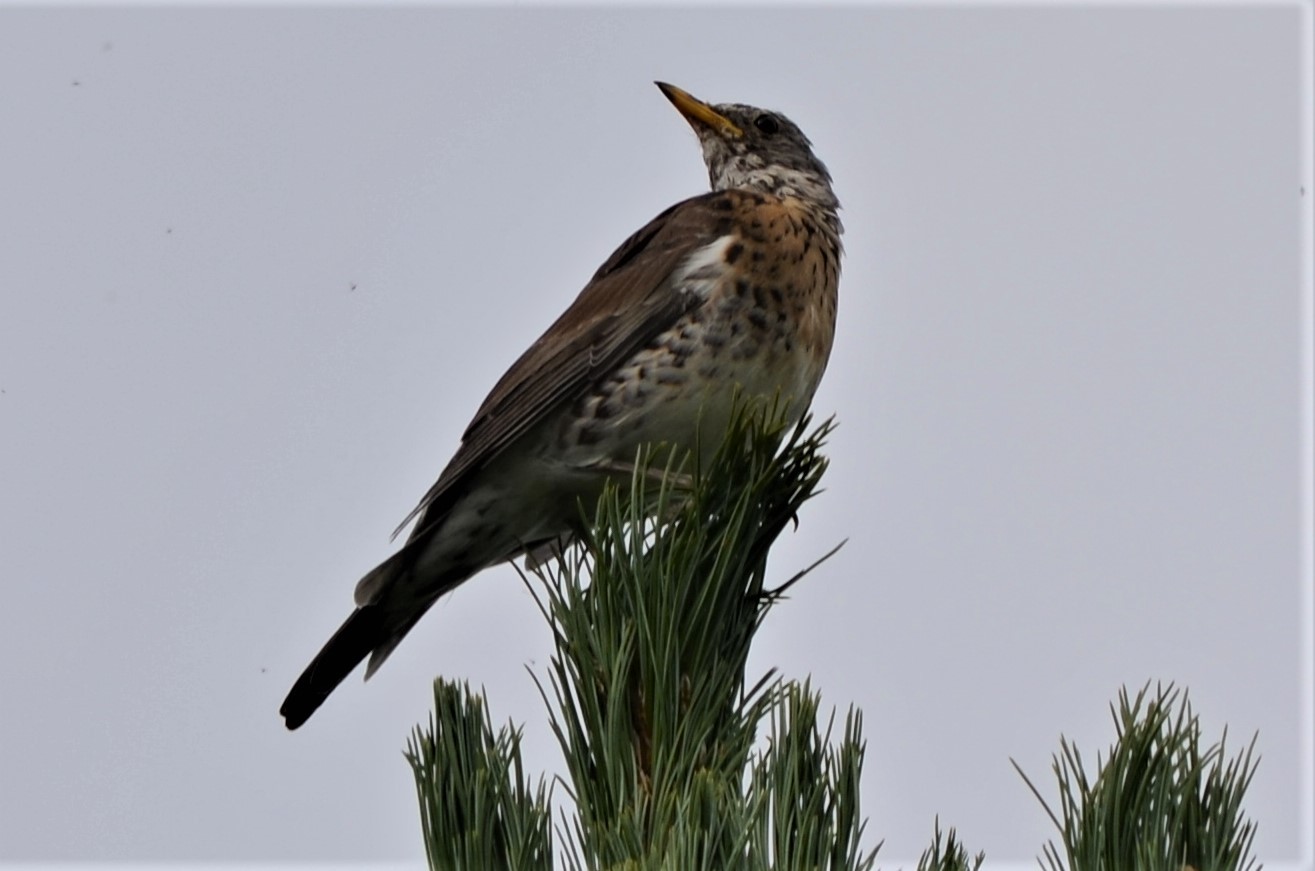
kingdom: Animalia
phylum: Chordata
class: Aves
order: Passeriformes
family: Turdidae
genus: Turdus
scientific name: Turdus pilaris
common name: Fieldfare
